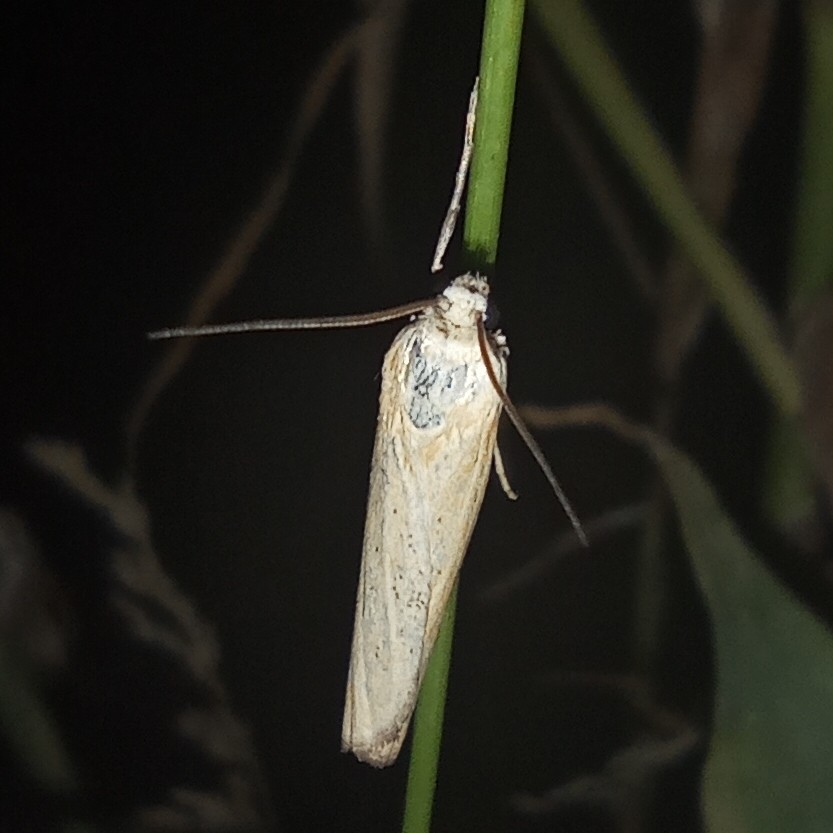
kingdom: Animalia
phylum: Arthropoda
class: Insecta
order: Lepidoptera
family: Crambidae
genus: Pediasia
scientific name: Pediasia luteella
